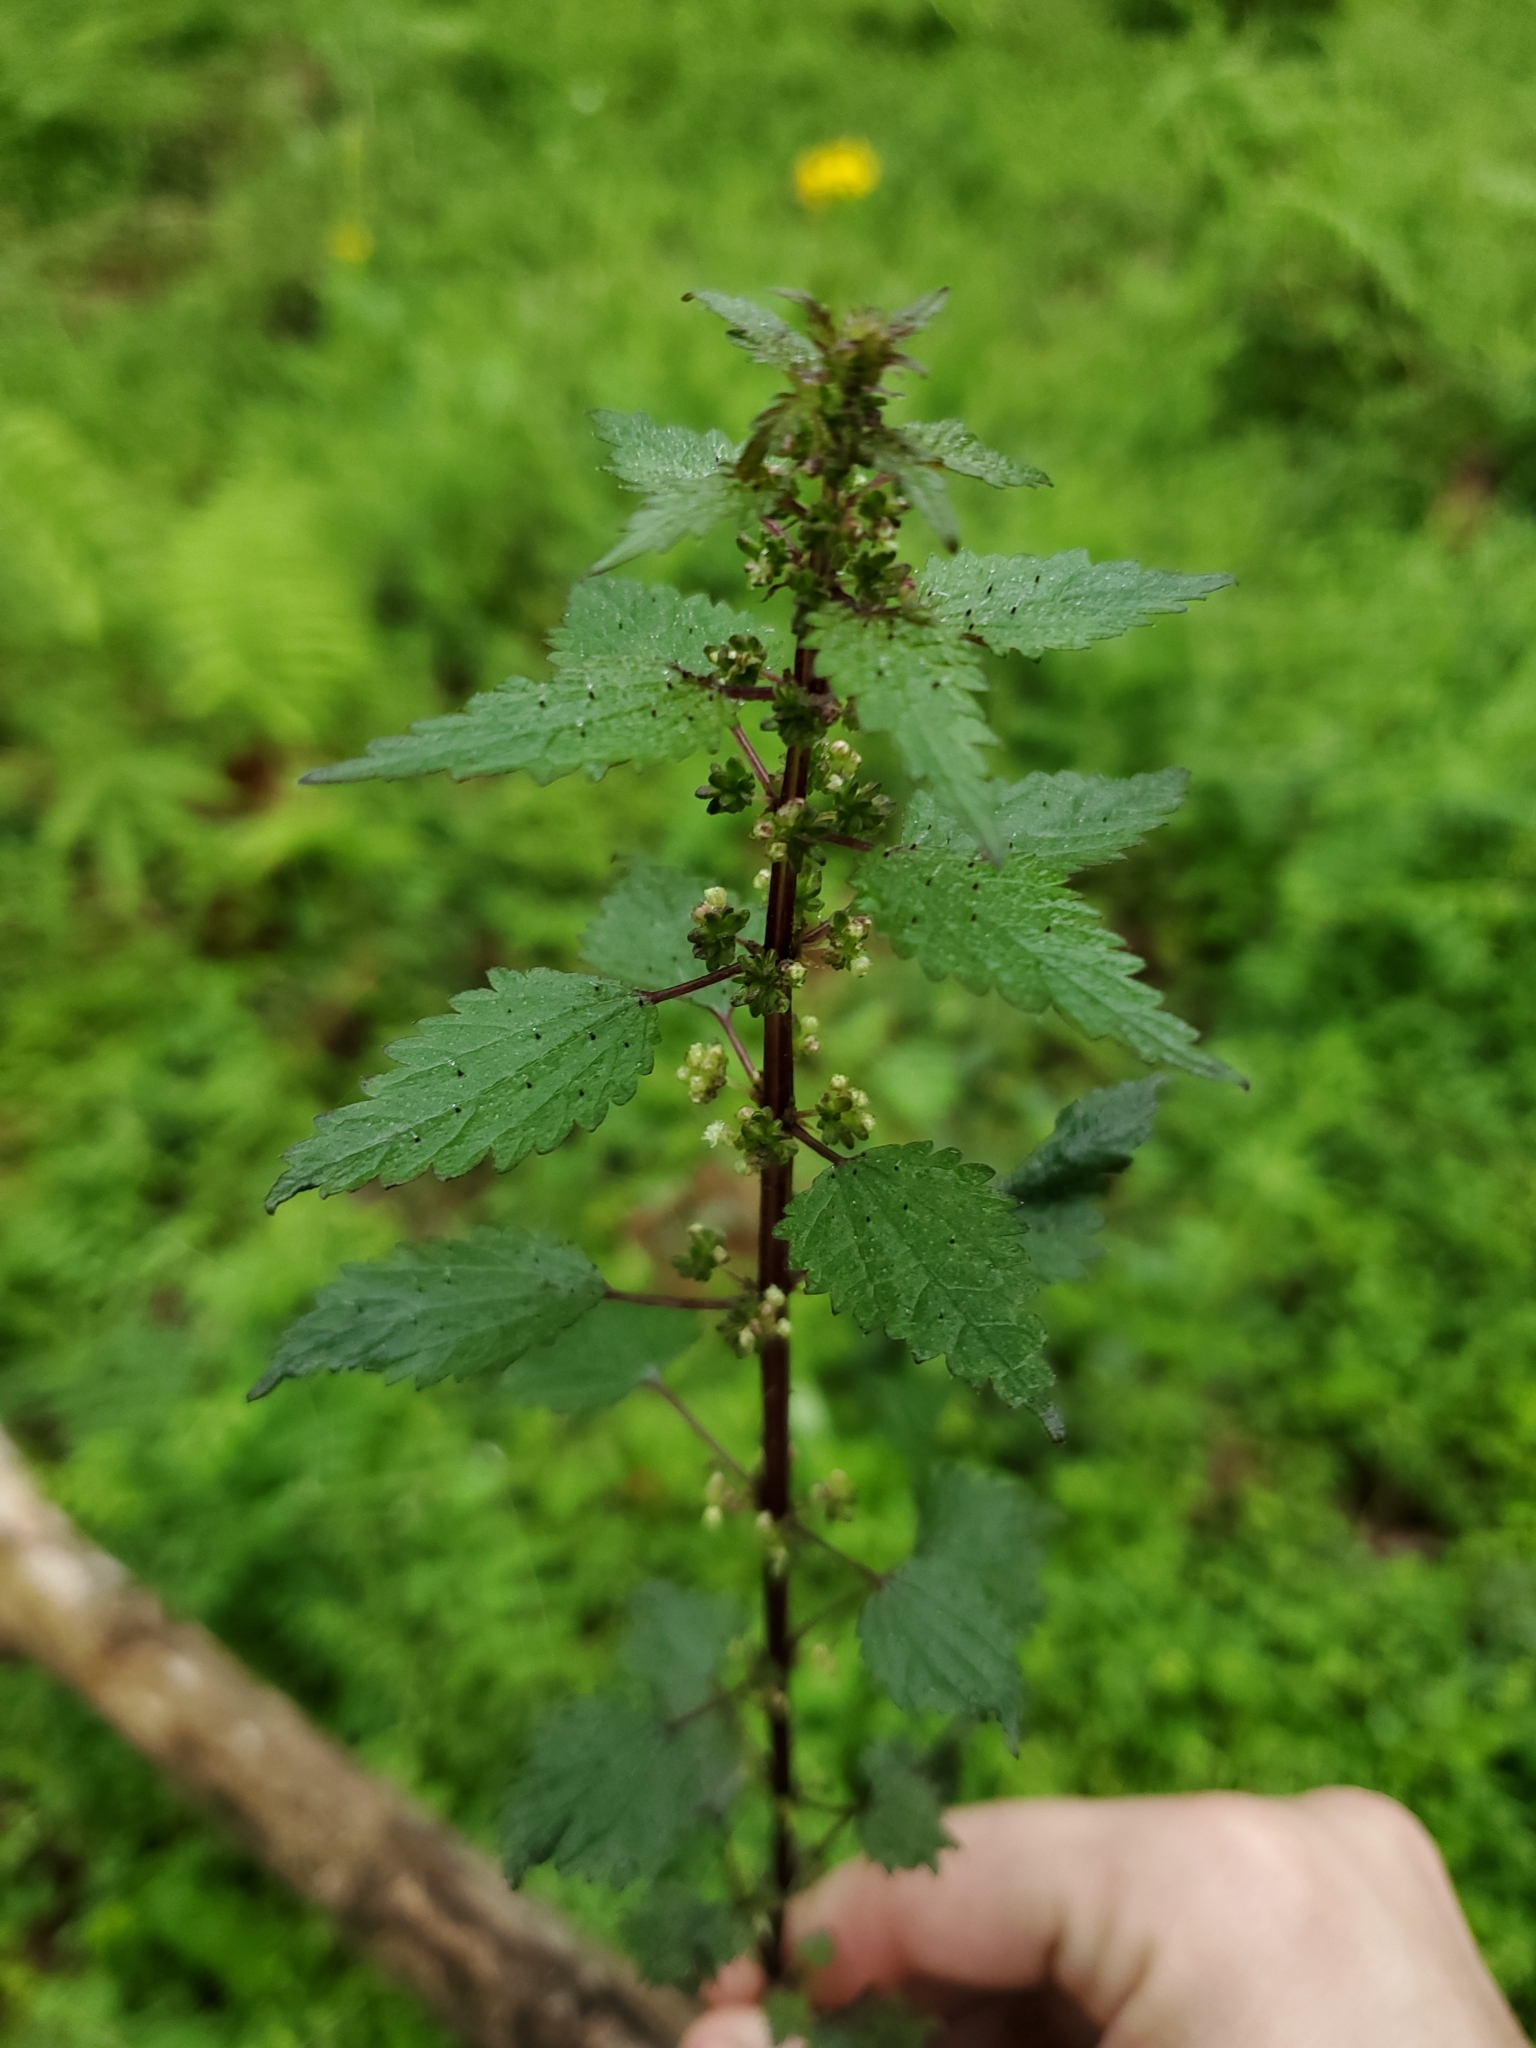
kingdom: Plantae
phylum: Tracheophyta
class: Magnoliopsida
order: Rosales
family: Urticaceae
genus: Urtica
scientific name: Urtica dioica
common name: Common nettle
